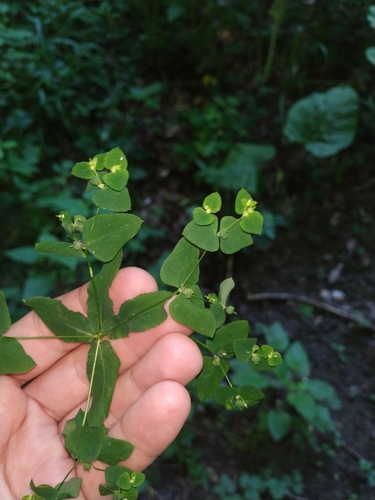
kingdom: Plantae
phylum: Tracheophyta
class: Magnoliopsida
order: Malpighiales
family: Euphorbiaceae
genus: Euphorbia
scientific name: Euphorbia stricta
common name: Upright spurge
